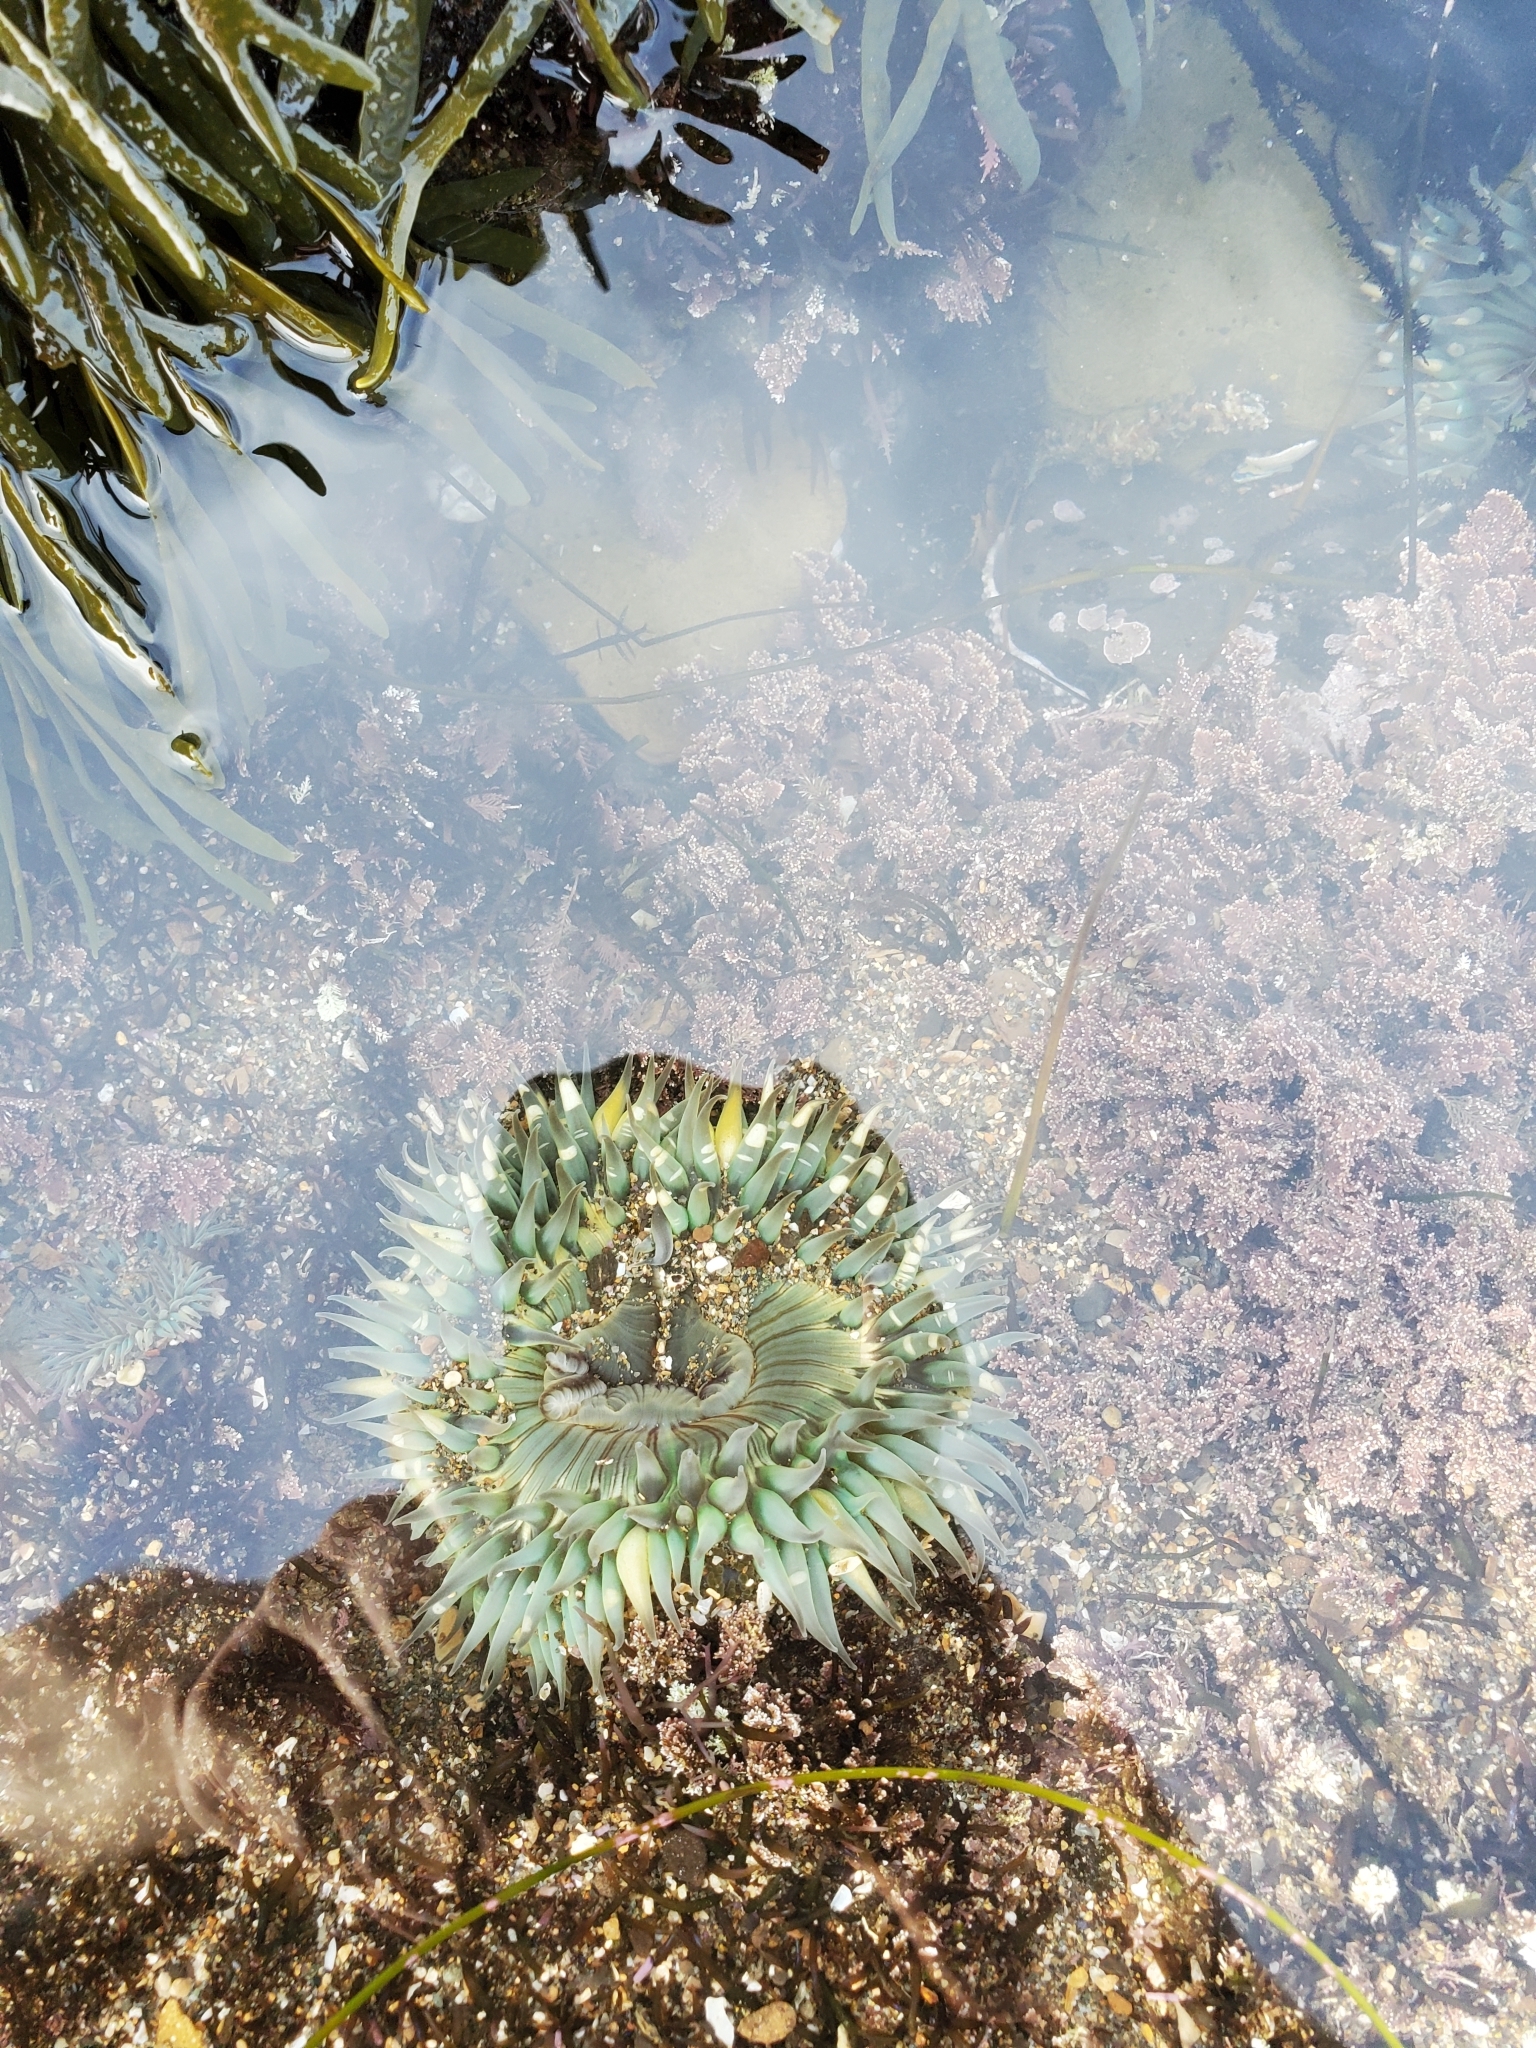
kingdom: Animalia
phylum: Cnidaria
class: Anthozoa
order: Actiniaria
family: Actiniidae
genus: Anthopleura
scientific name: Anthopleura sola
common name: Sun anemone
